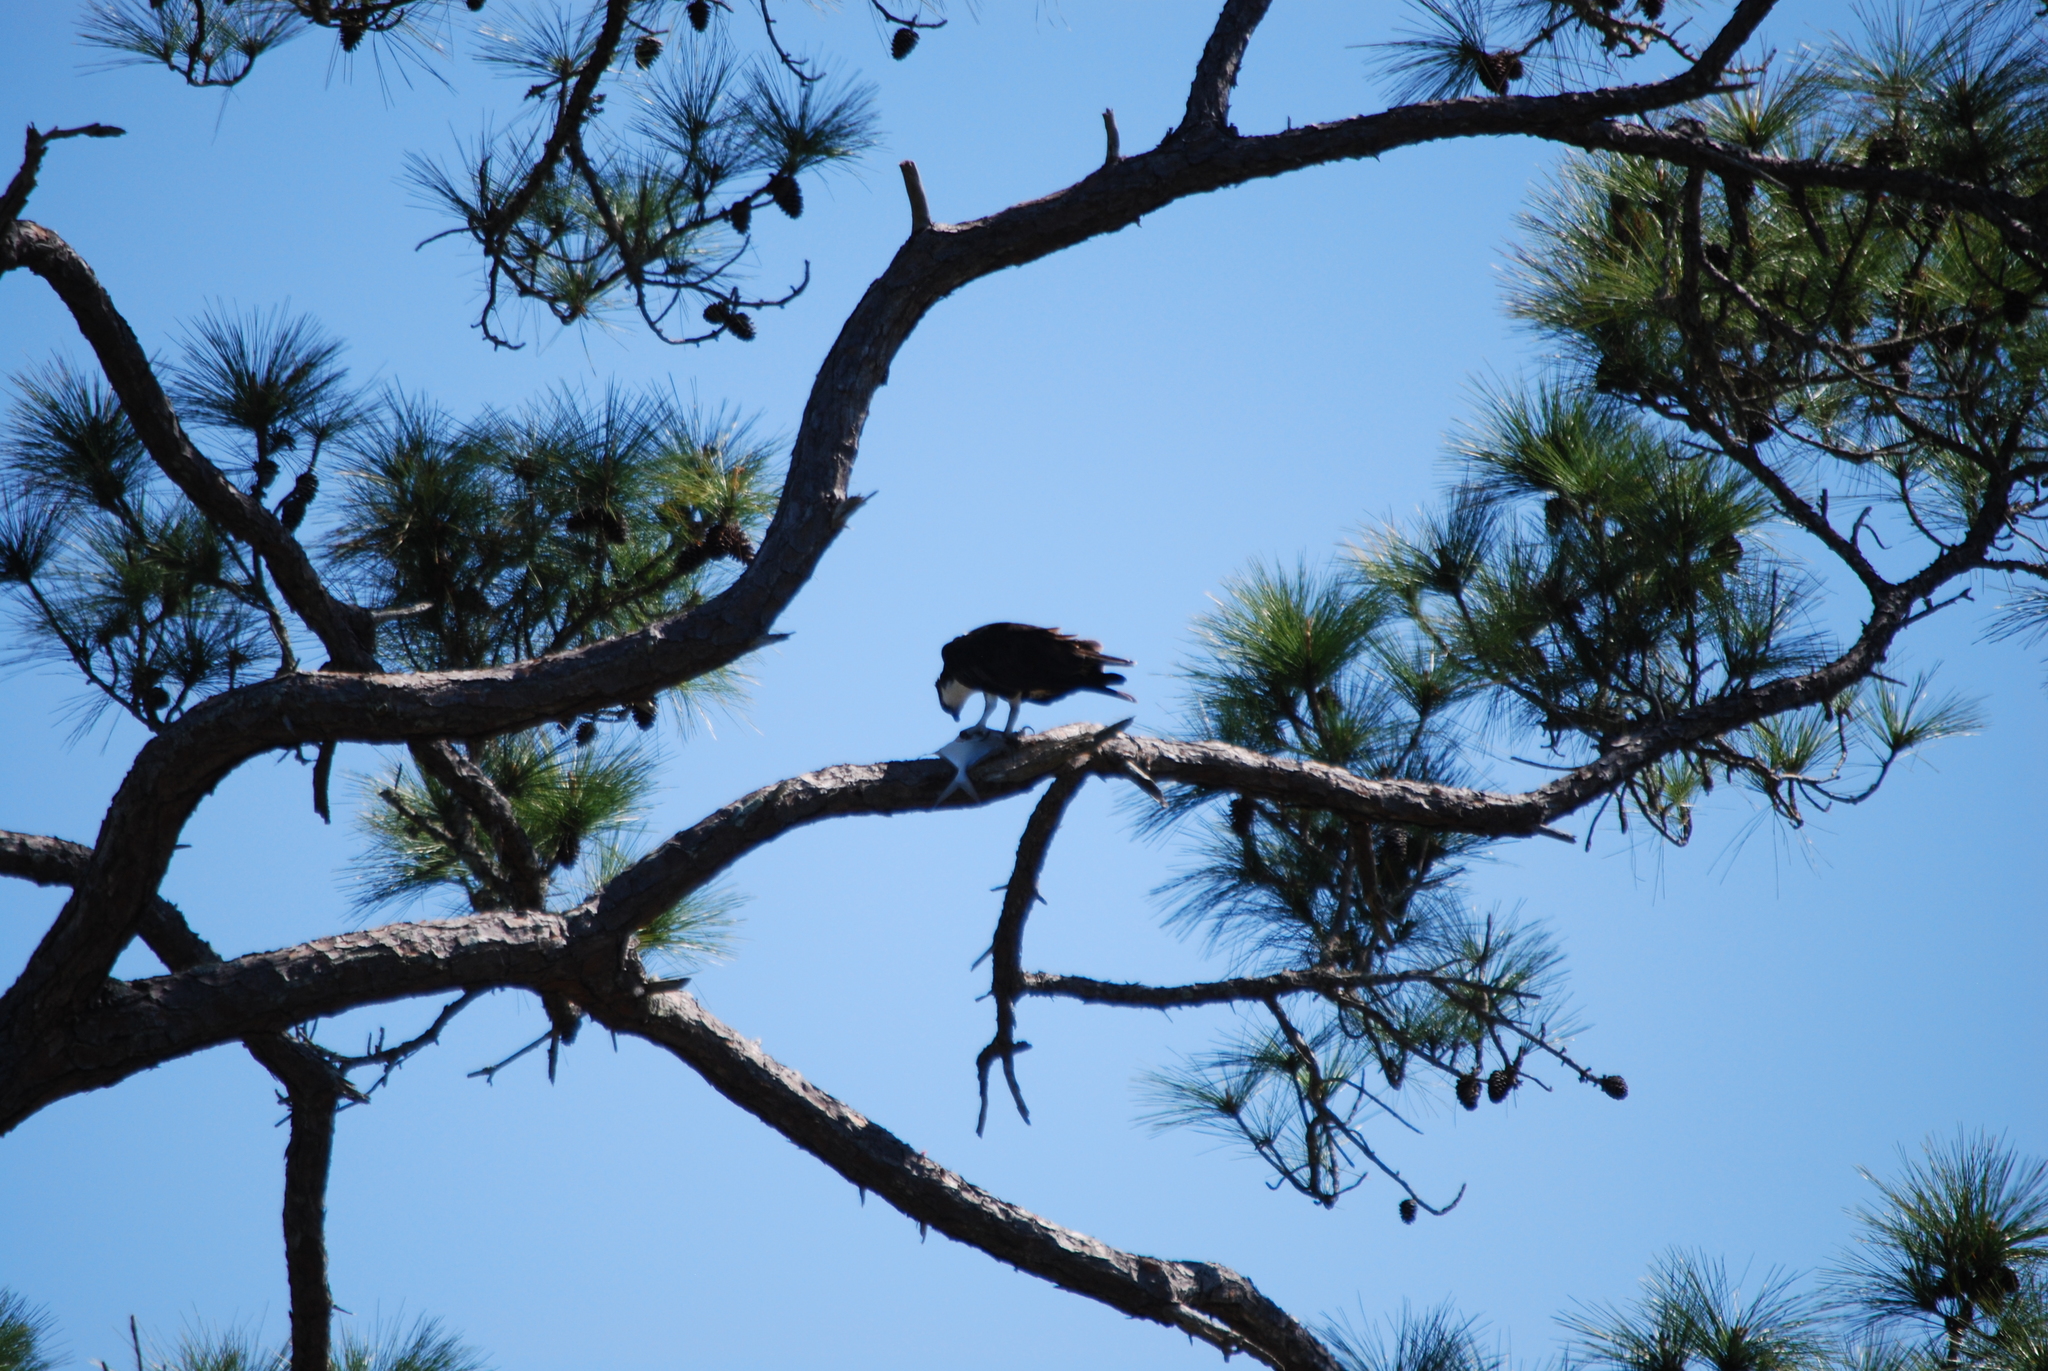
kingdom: Animalia
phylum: Chordata
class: Aves
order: Accipitriformes
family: Pandionidae
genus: Pandion
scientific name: Pandion haliaetus
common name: Osprey
